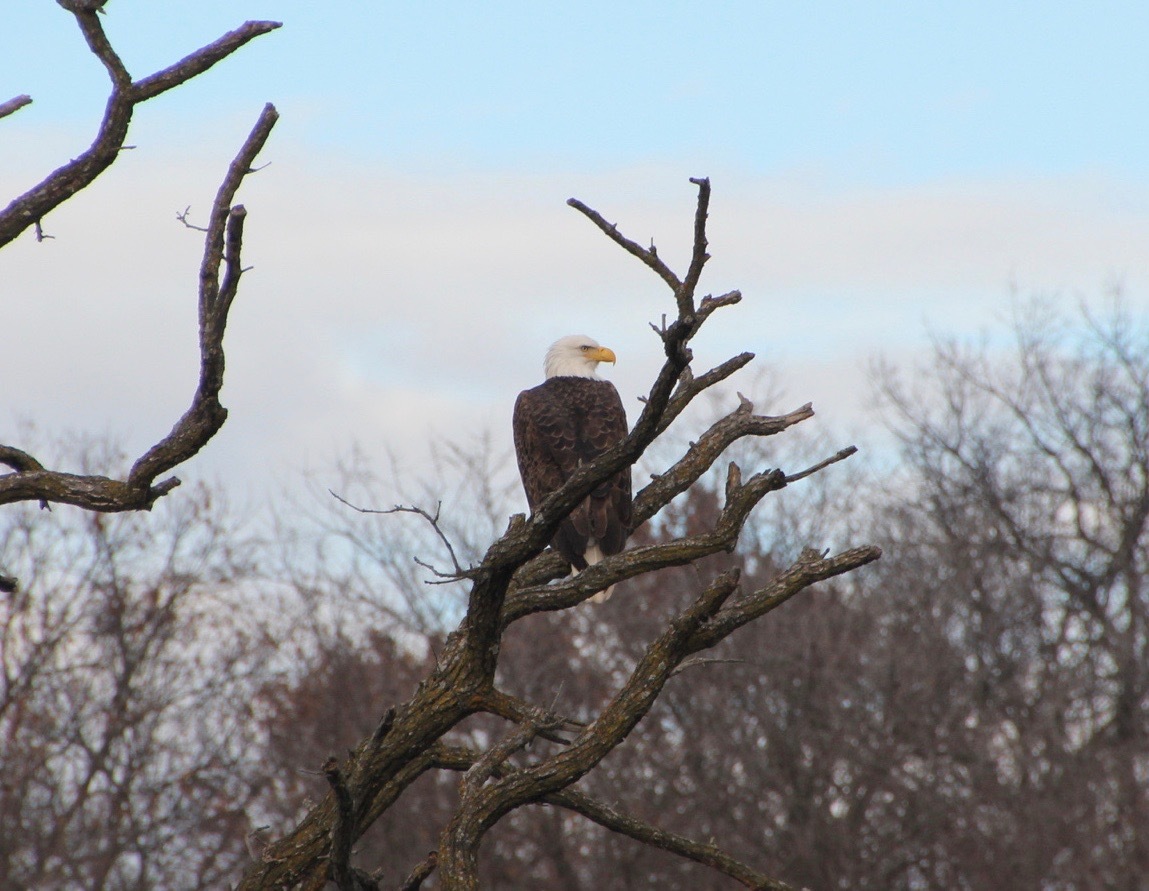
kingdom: Animalia
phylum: Chordata
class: Aves
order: Accipitriformes
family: Accipitridae
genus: Haliaeetus
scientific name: Haliaeetus leucocephalus
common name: Bald eagle
